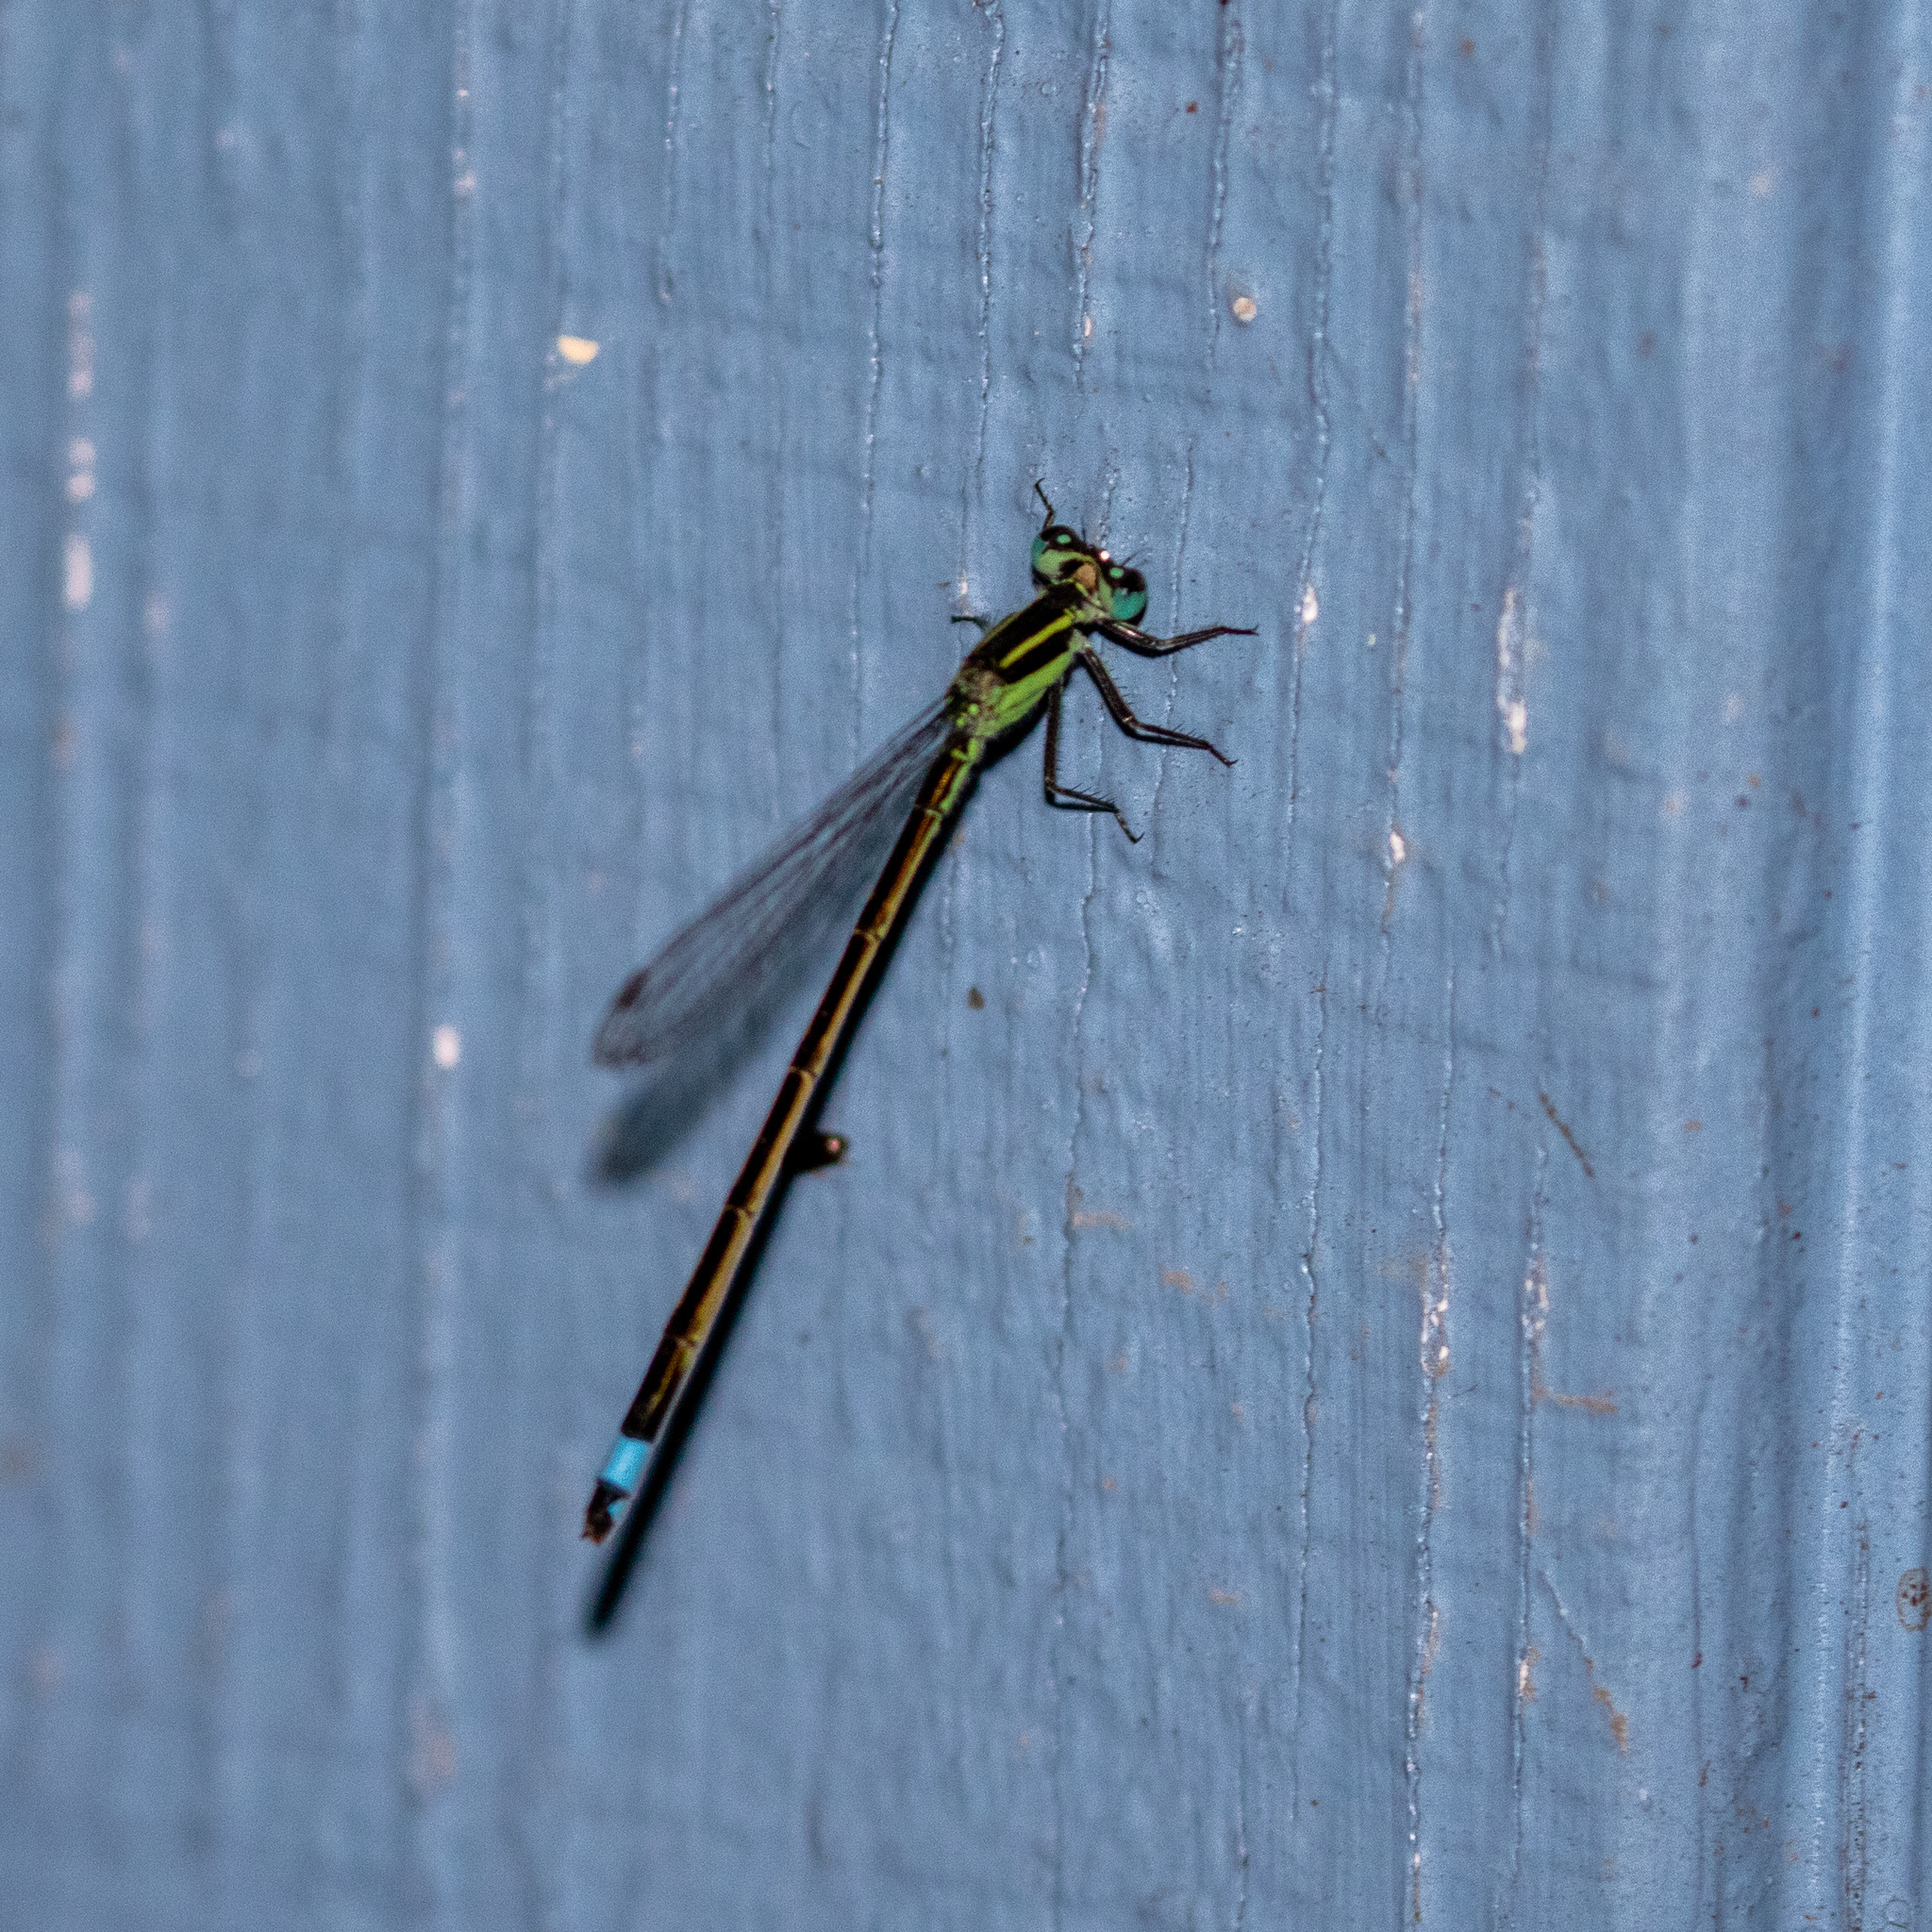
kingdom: Animalia
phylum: Arthropoda
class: Insecta
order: Odonata
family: Coenagrionidae
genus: Ischnura
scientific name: Ischnura ramburii
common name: Rambur's forktail
